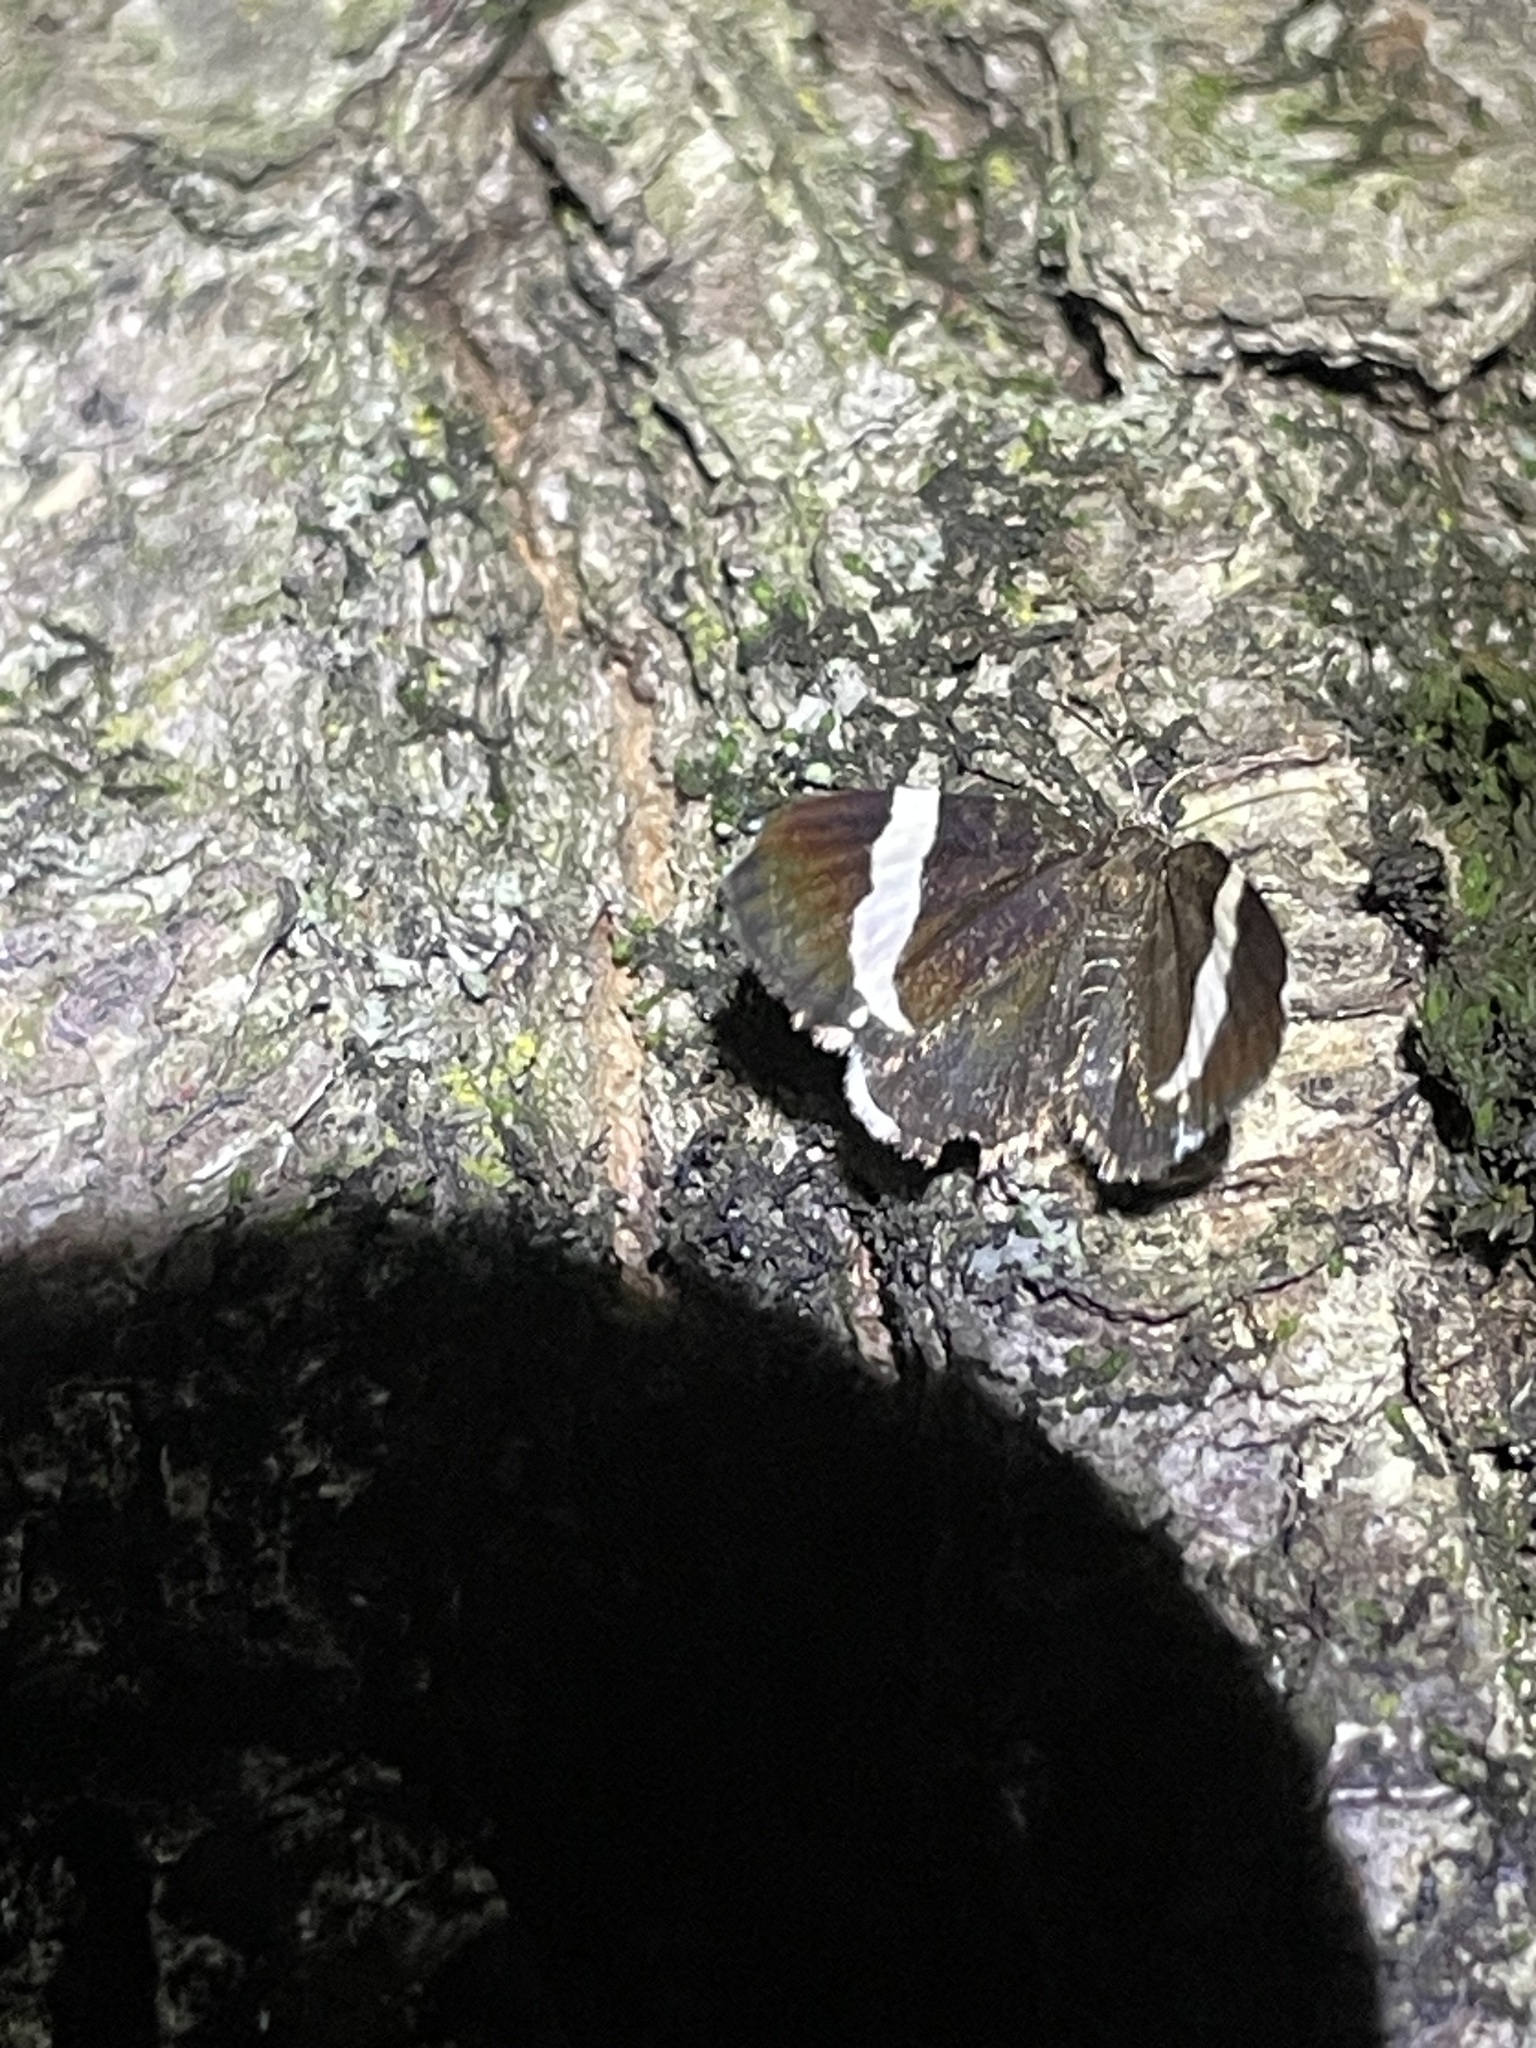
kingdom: Animalia
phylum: Arthropoda
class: Insecta
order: Lepidoptera
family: Geometridae
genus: Trichodezia
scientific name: Trichodezia albovittata
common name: White striped black
